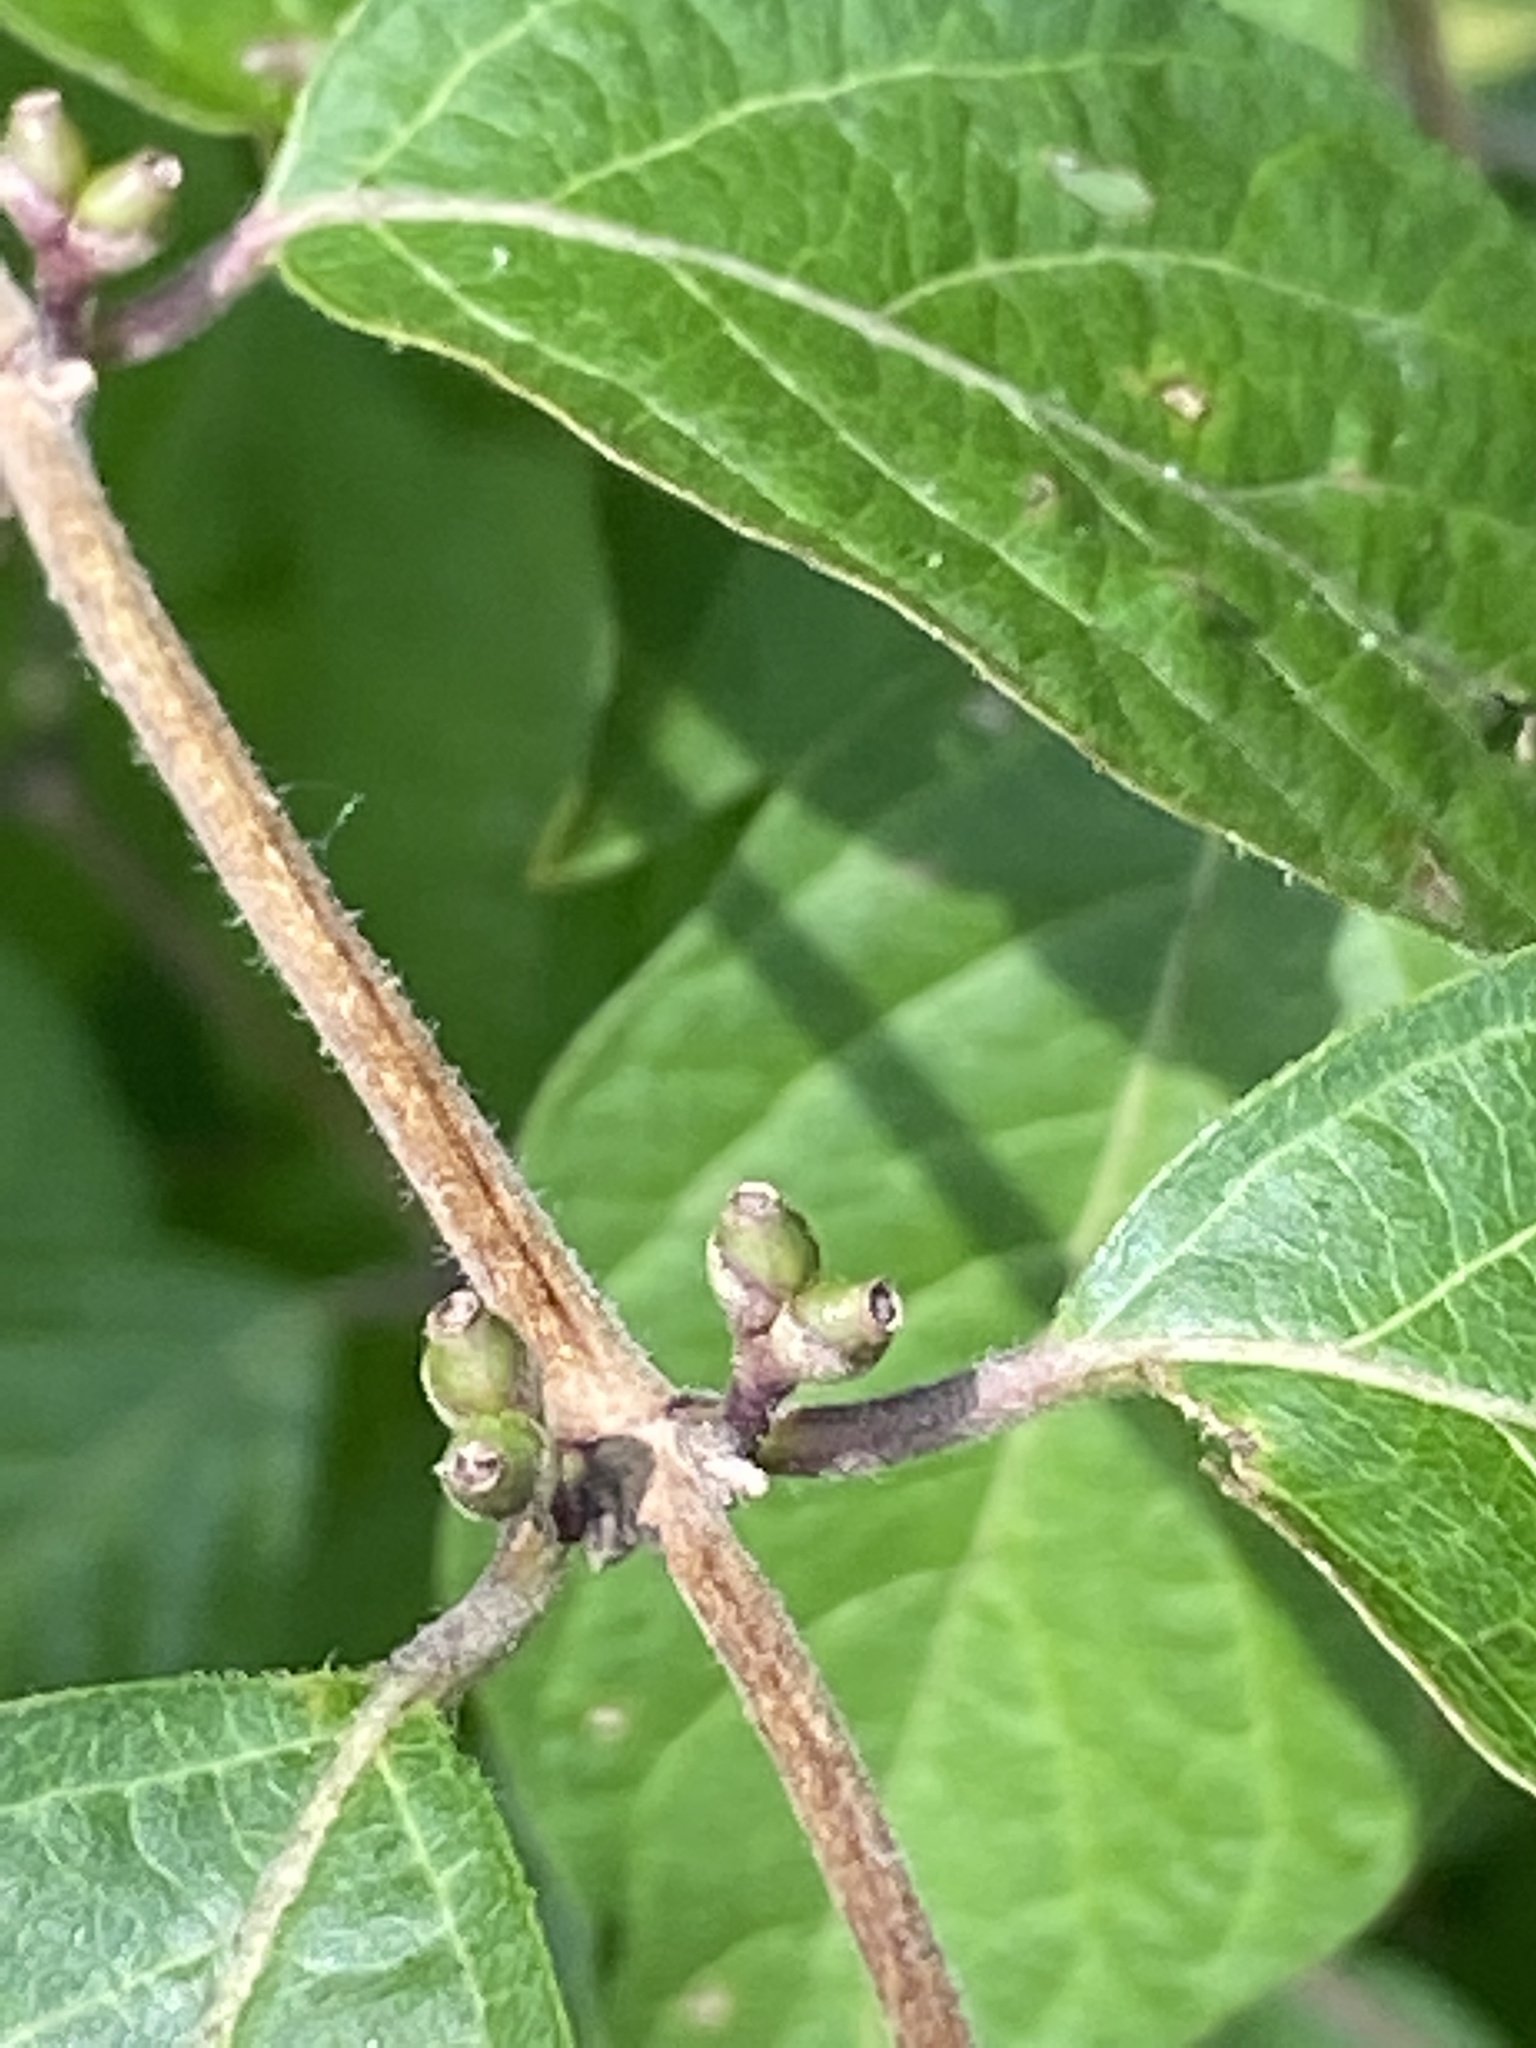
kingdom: Plantae
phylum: Tracheophyta
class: Magnoliopsida
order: Dipsacales
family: Caprifoliaceae
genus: Lonicera
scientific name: Lonicera maackii
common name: Amur honeysuckle
